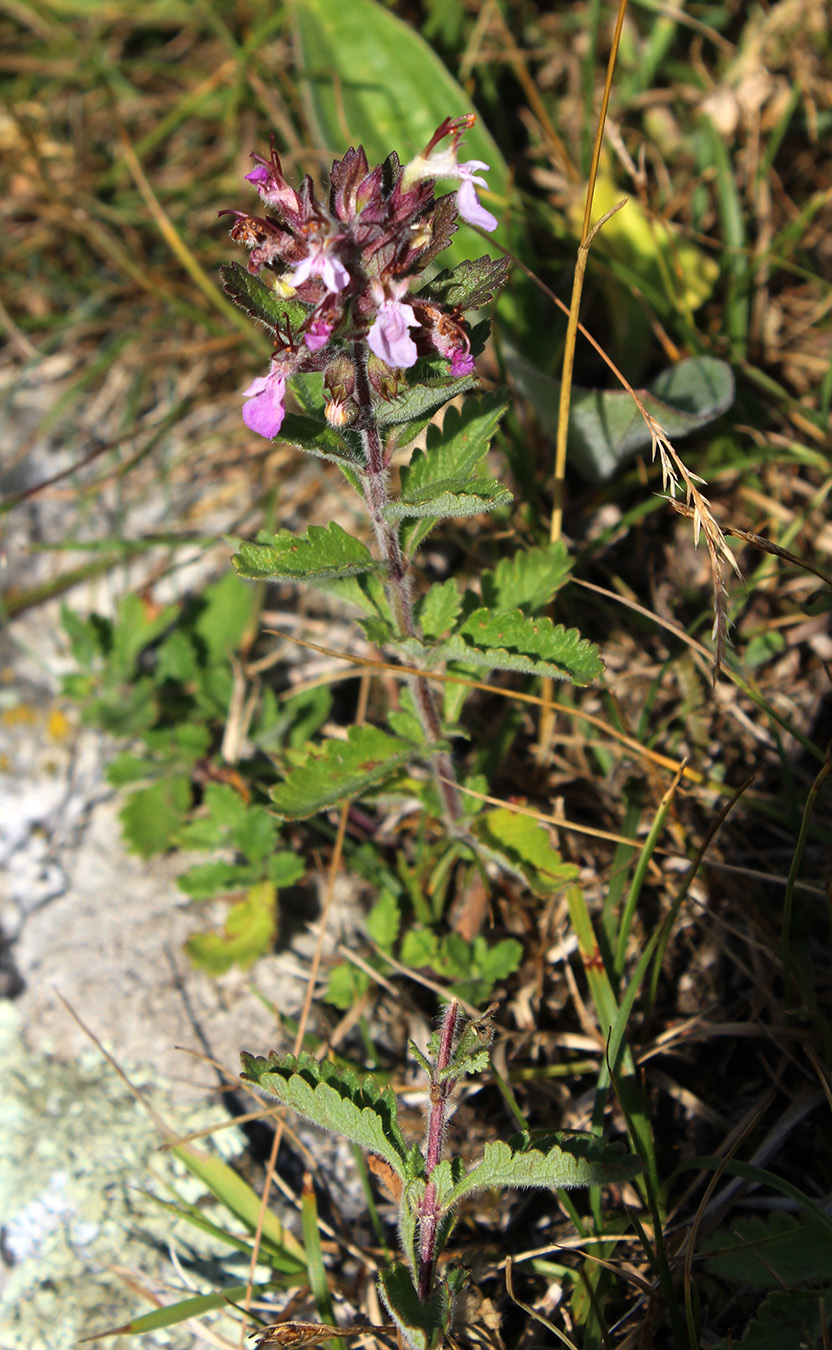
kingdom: Plantae
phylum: Tracheophyta
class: Magnoliopsida
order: Lamiales
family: Lamiaceae
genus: Teucrium
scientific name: Teucrium chamaedrys
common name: Wall germander
